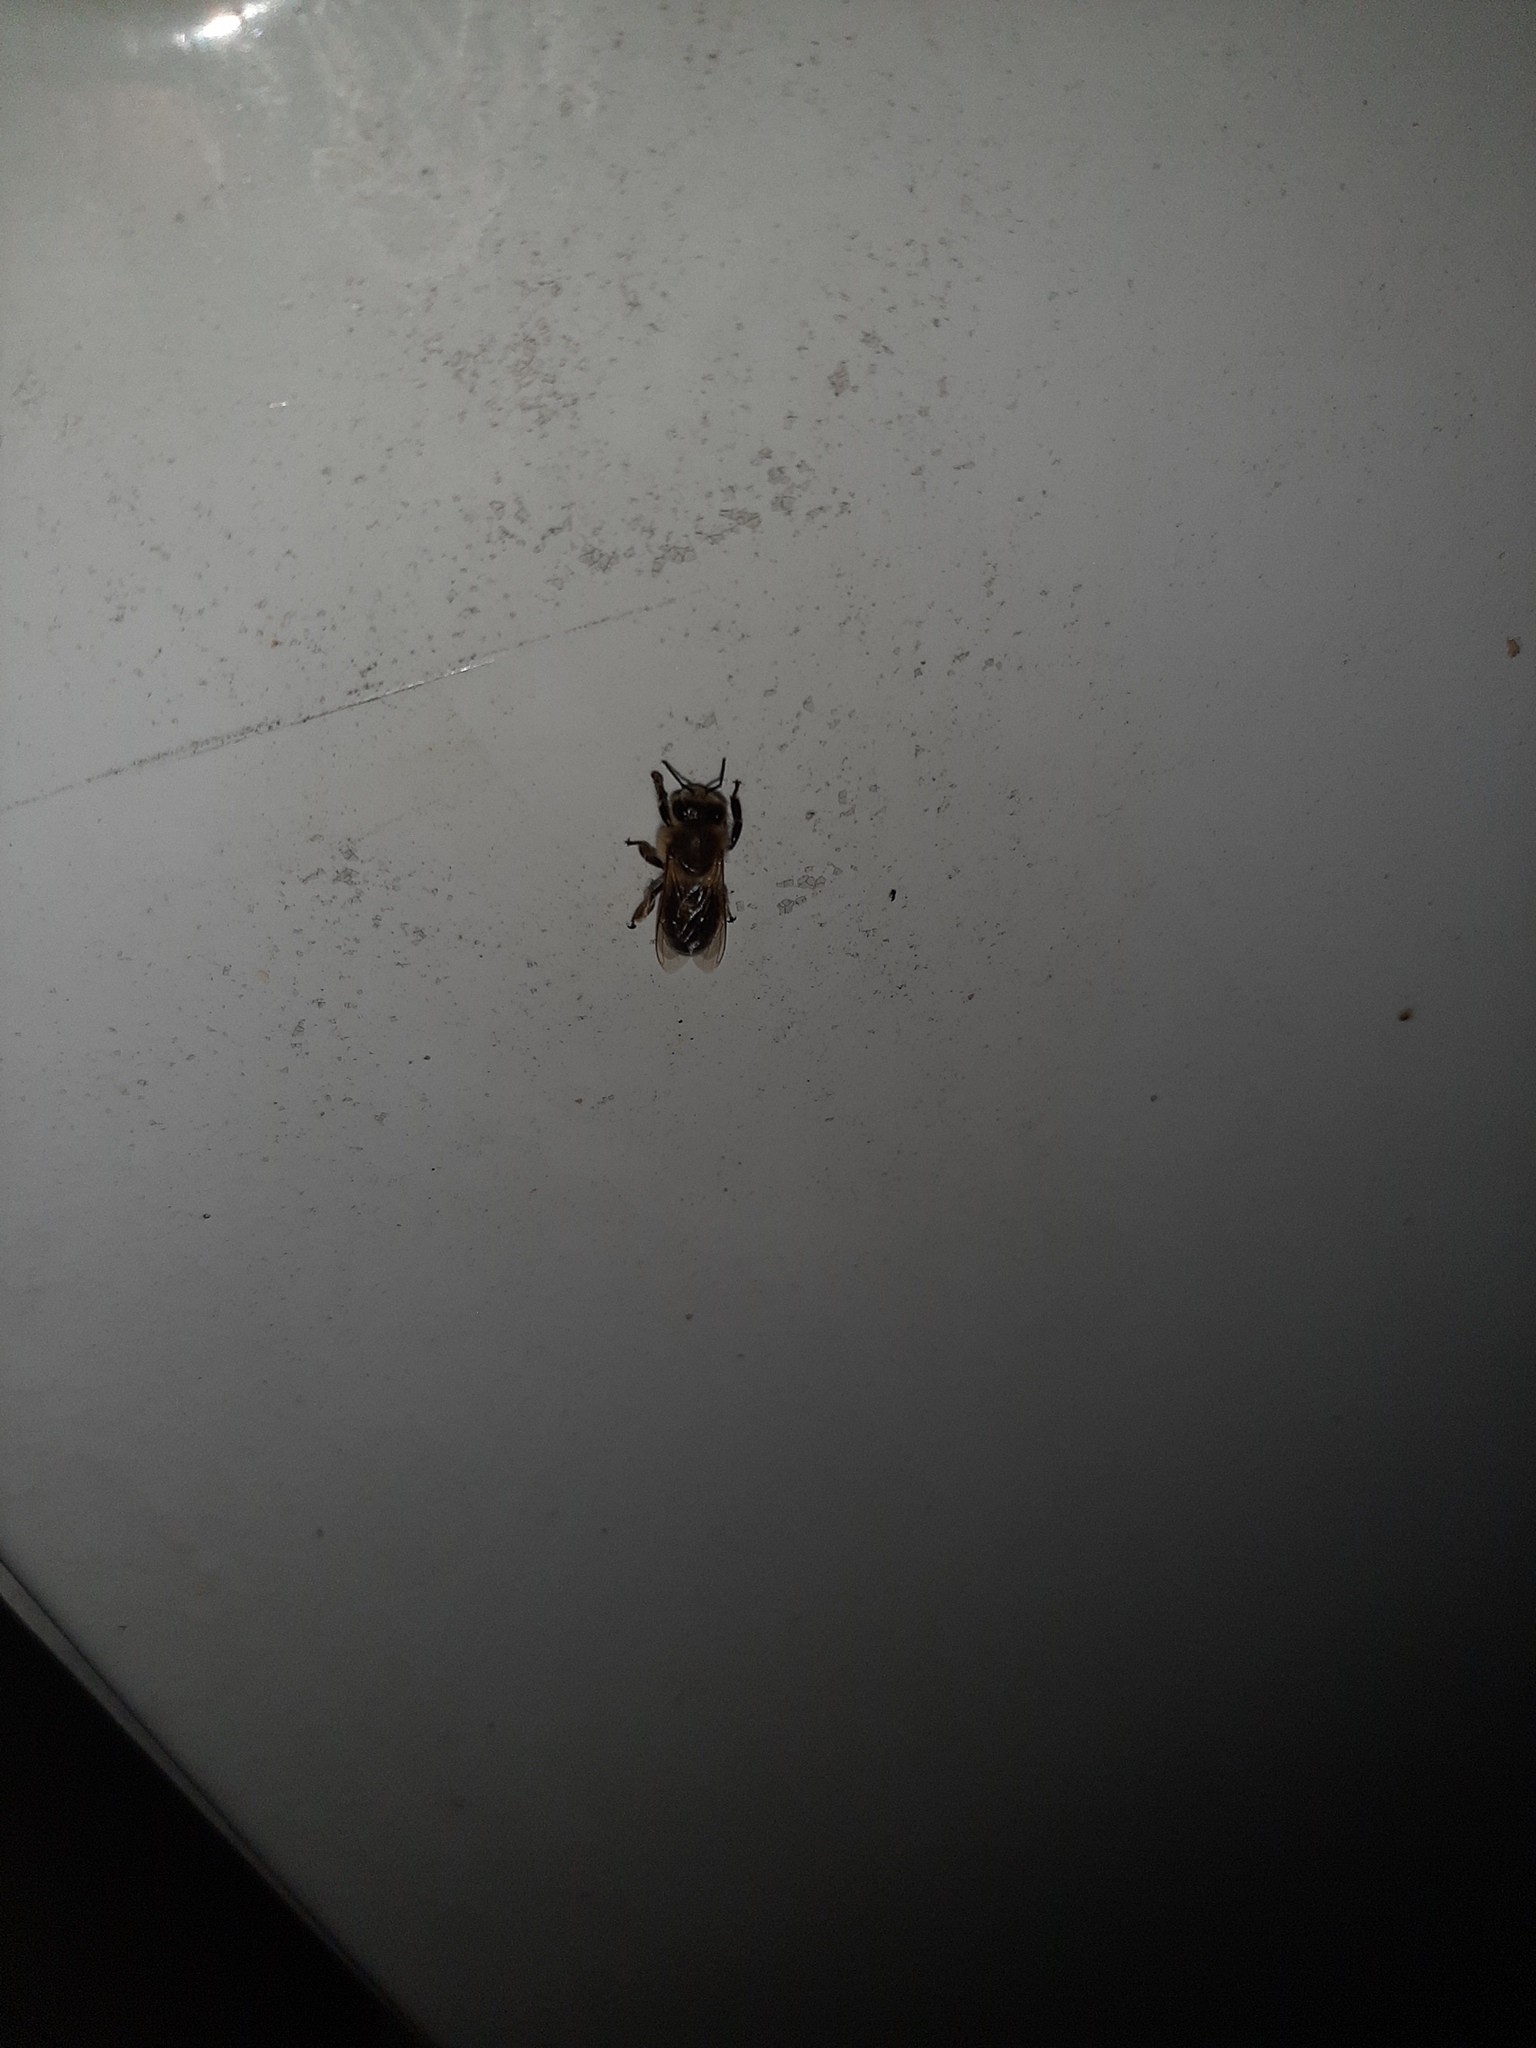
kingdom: Animalia
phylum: Arthropoda
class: Insecta
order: Hymenoptera
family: Apidae
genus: Apis
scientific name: Apis mellifera
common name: Honey bee
